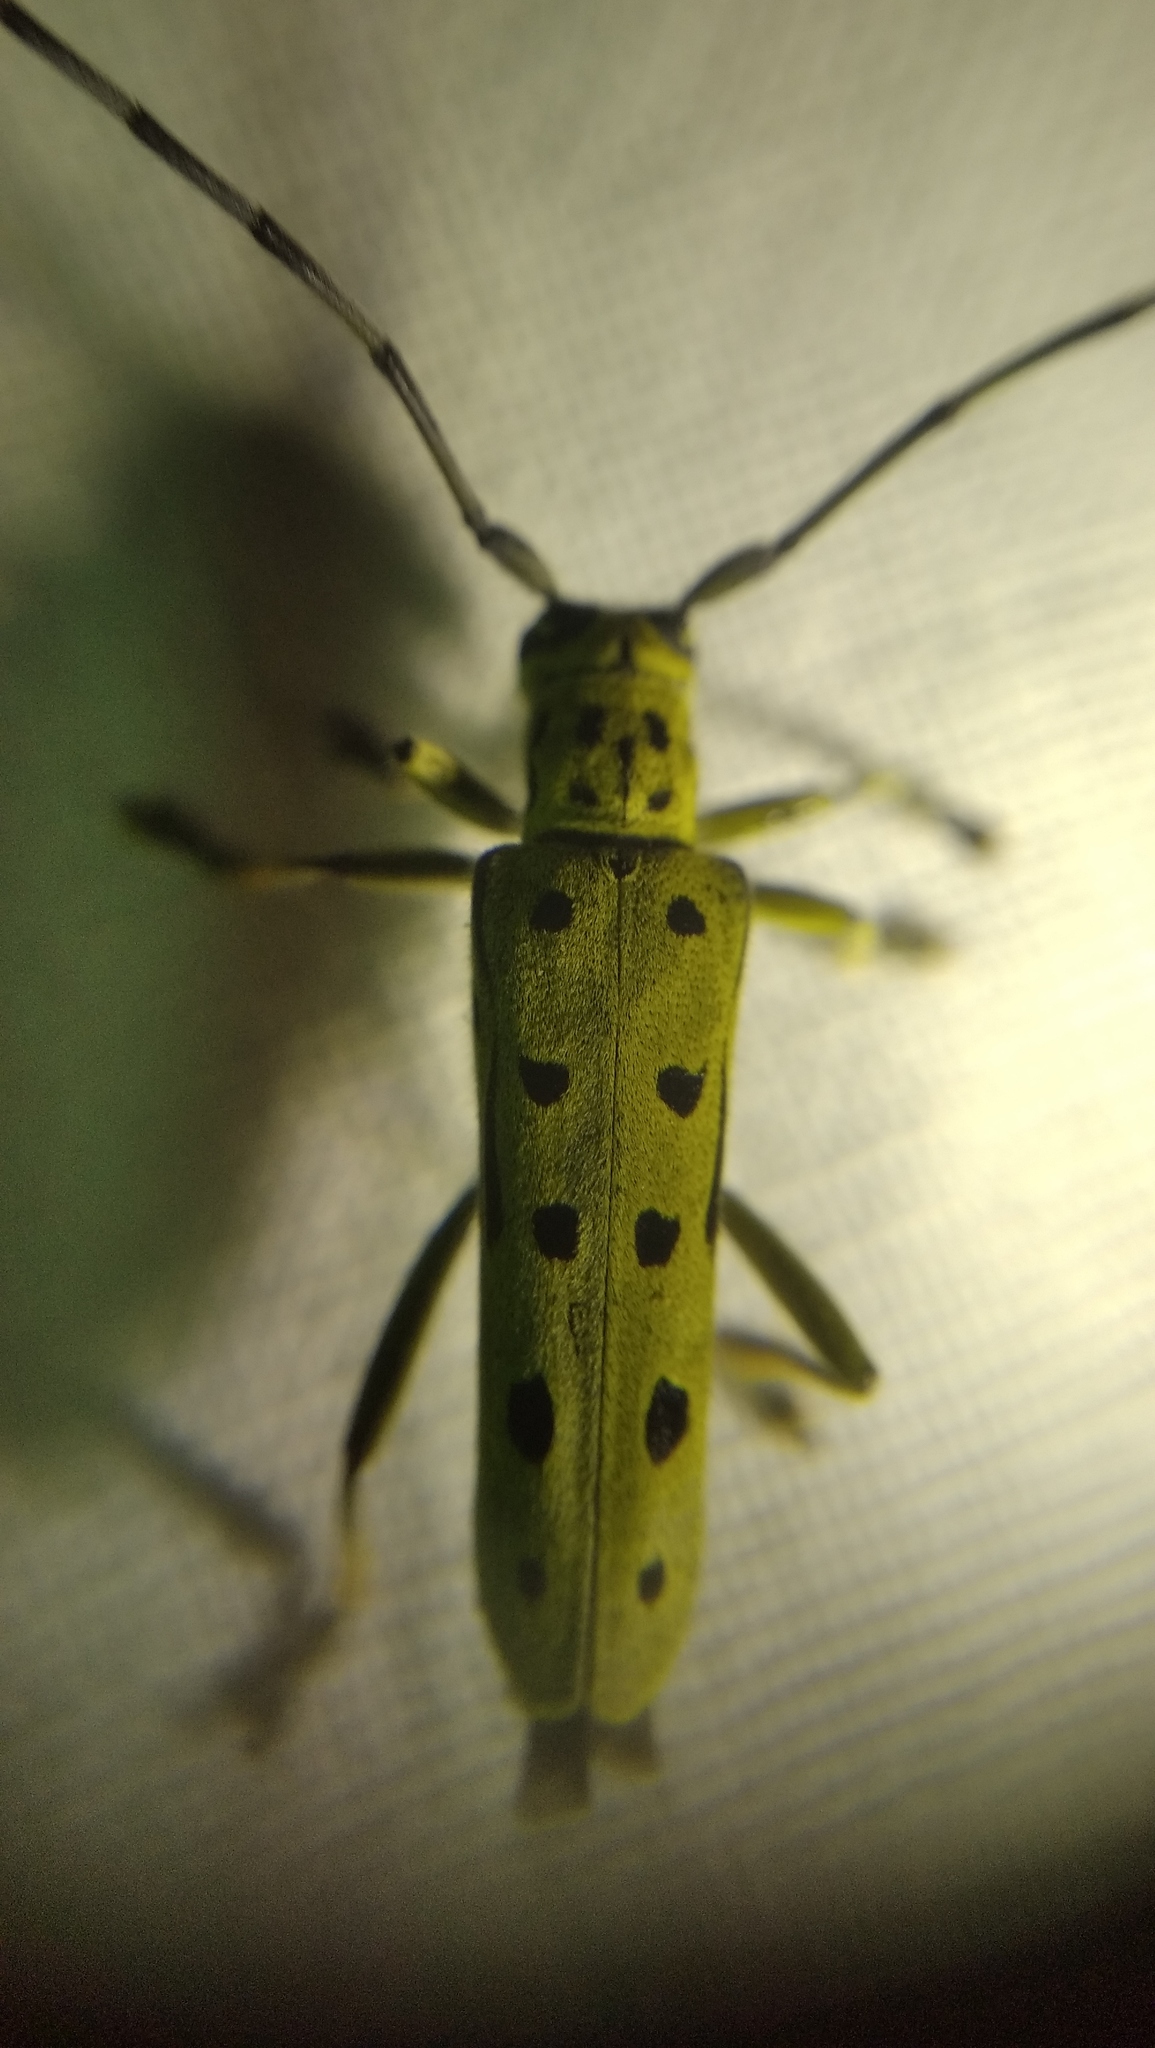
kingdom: Animalia
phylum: Arthropoda
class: Insecta
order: Coleoptera
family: Cerambycidae
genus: Saperda
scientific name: Saperda perforata
